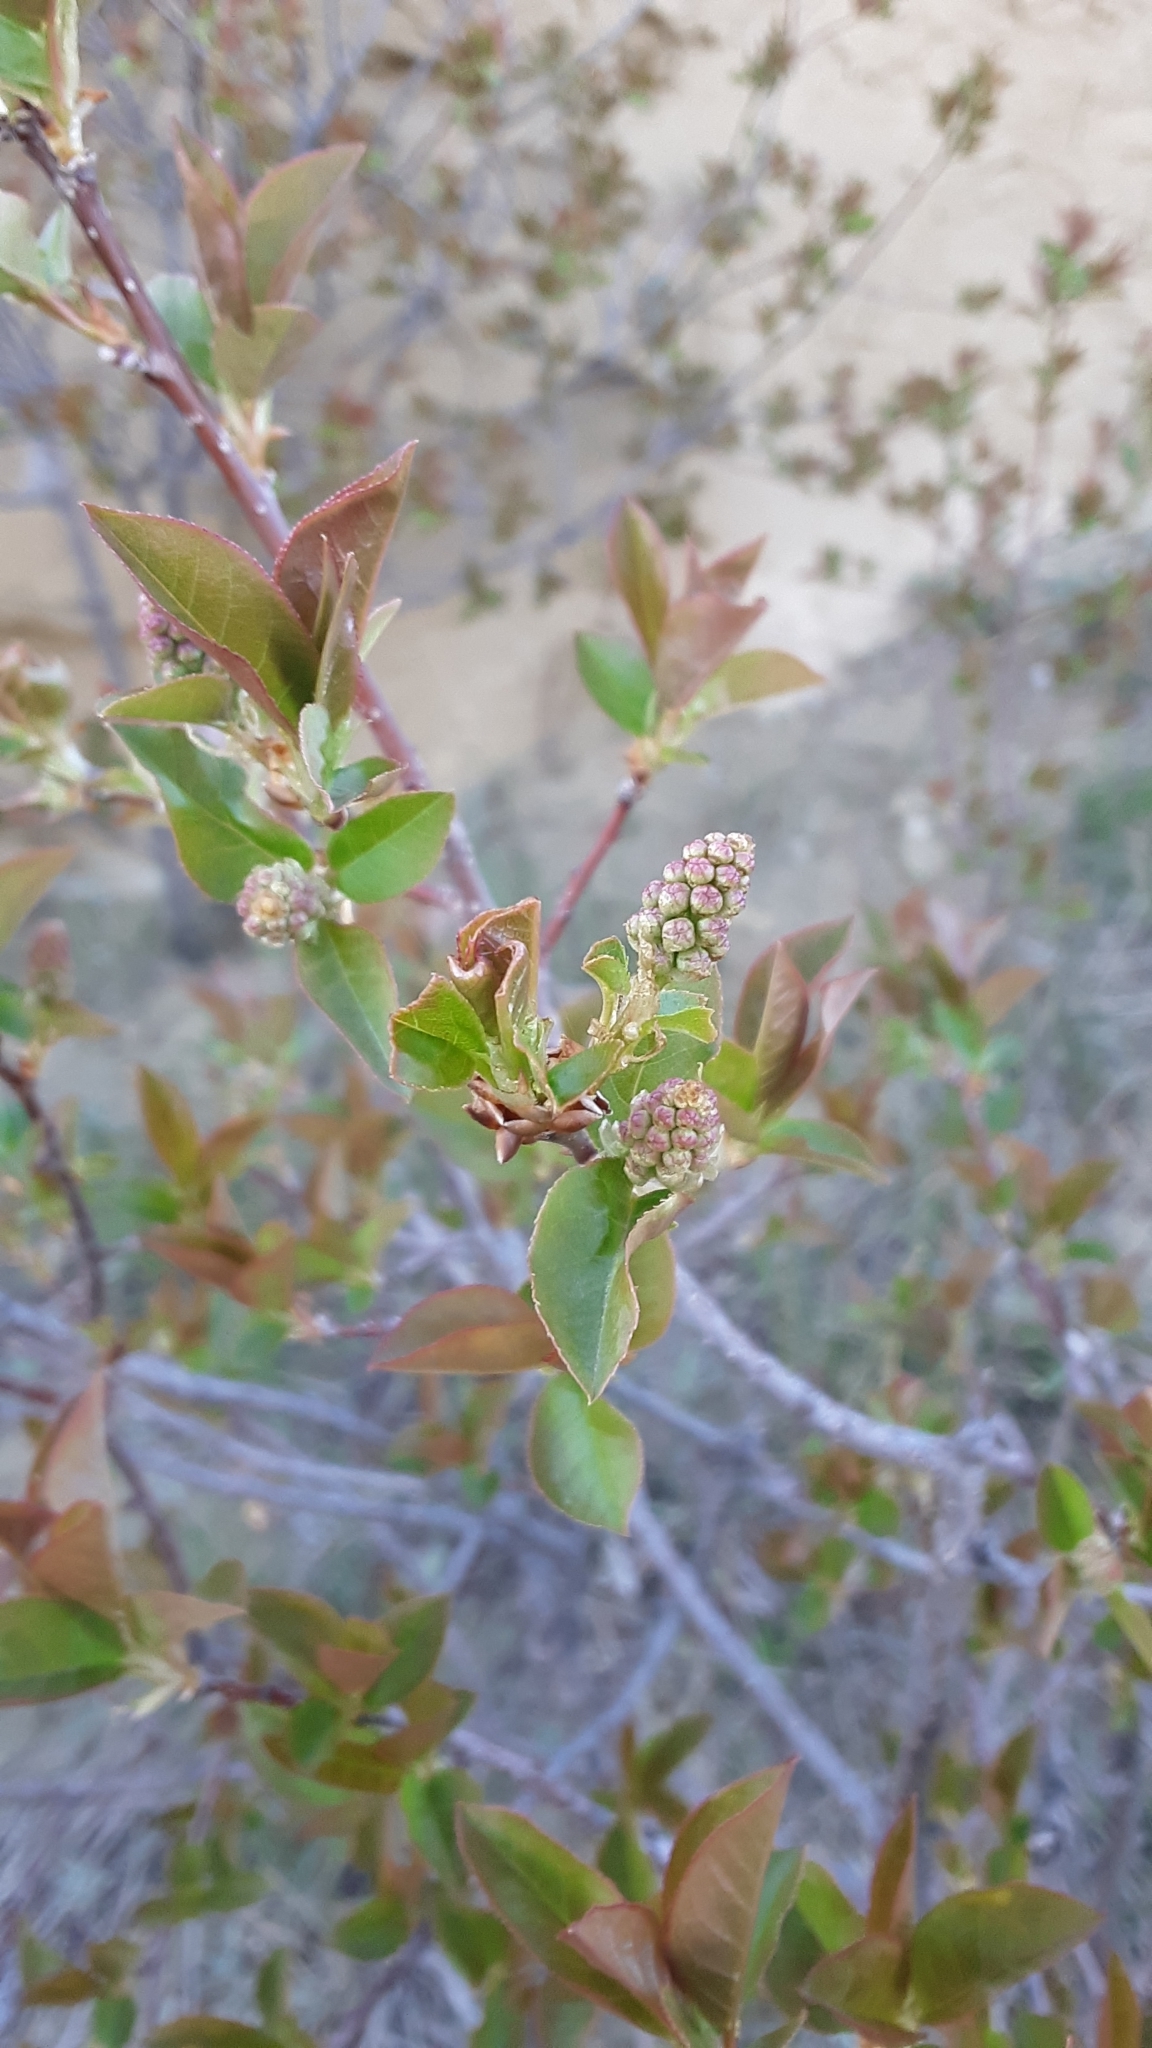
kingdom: Plantae
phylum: Tracheophyta
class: Magnoliopsida
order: Rosales
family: Rosaceae
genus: Prunus
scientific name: Prunus virginiana
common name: Chokecherry
